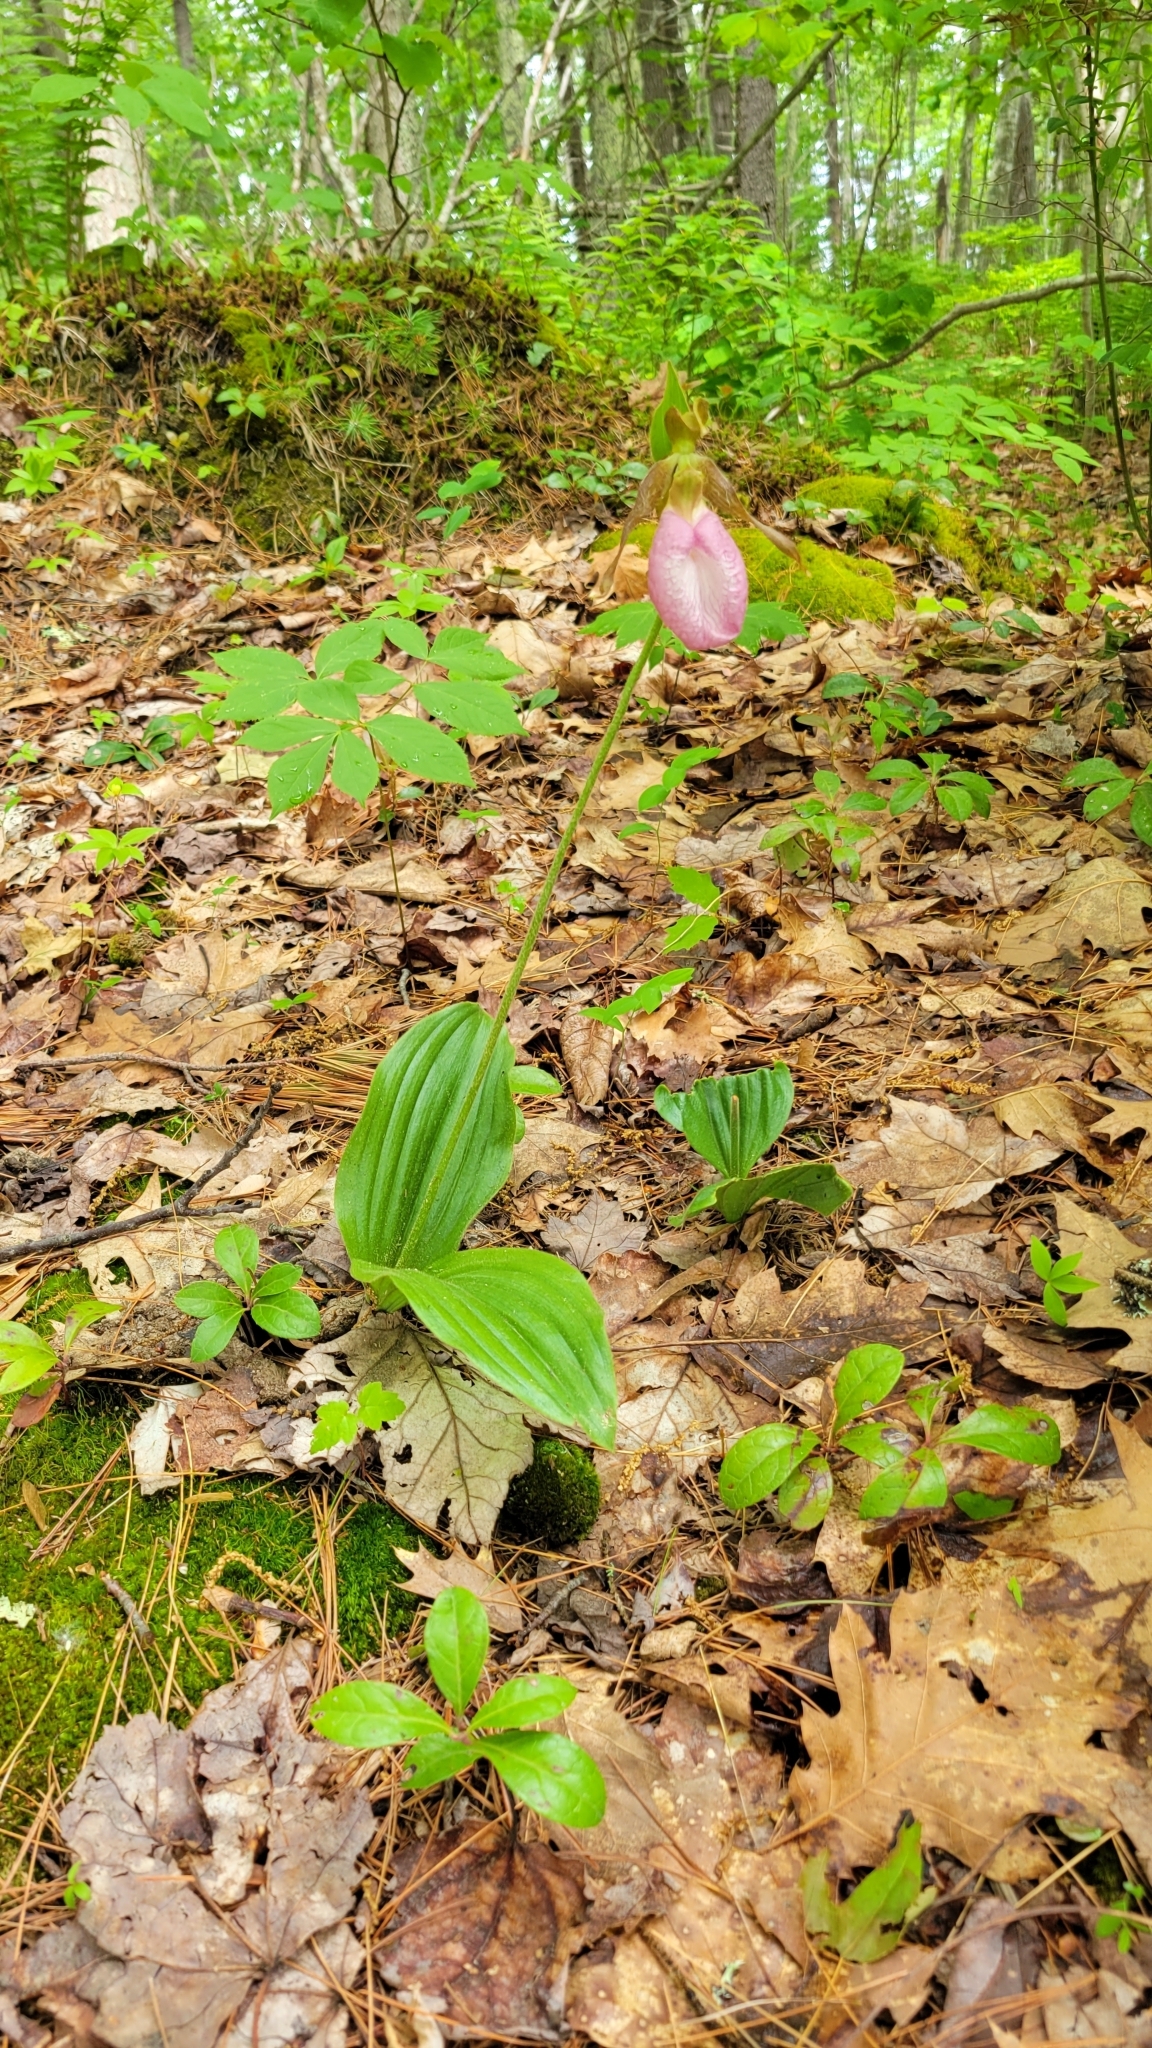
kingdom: Plantae
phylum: Tracheophyta
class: Liliopsida
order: Asparagales
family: Orchidaceae
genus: Cypripedium
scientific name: Cypripedium acaule
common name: Pink lady's-slipper
